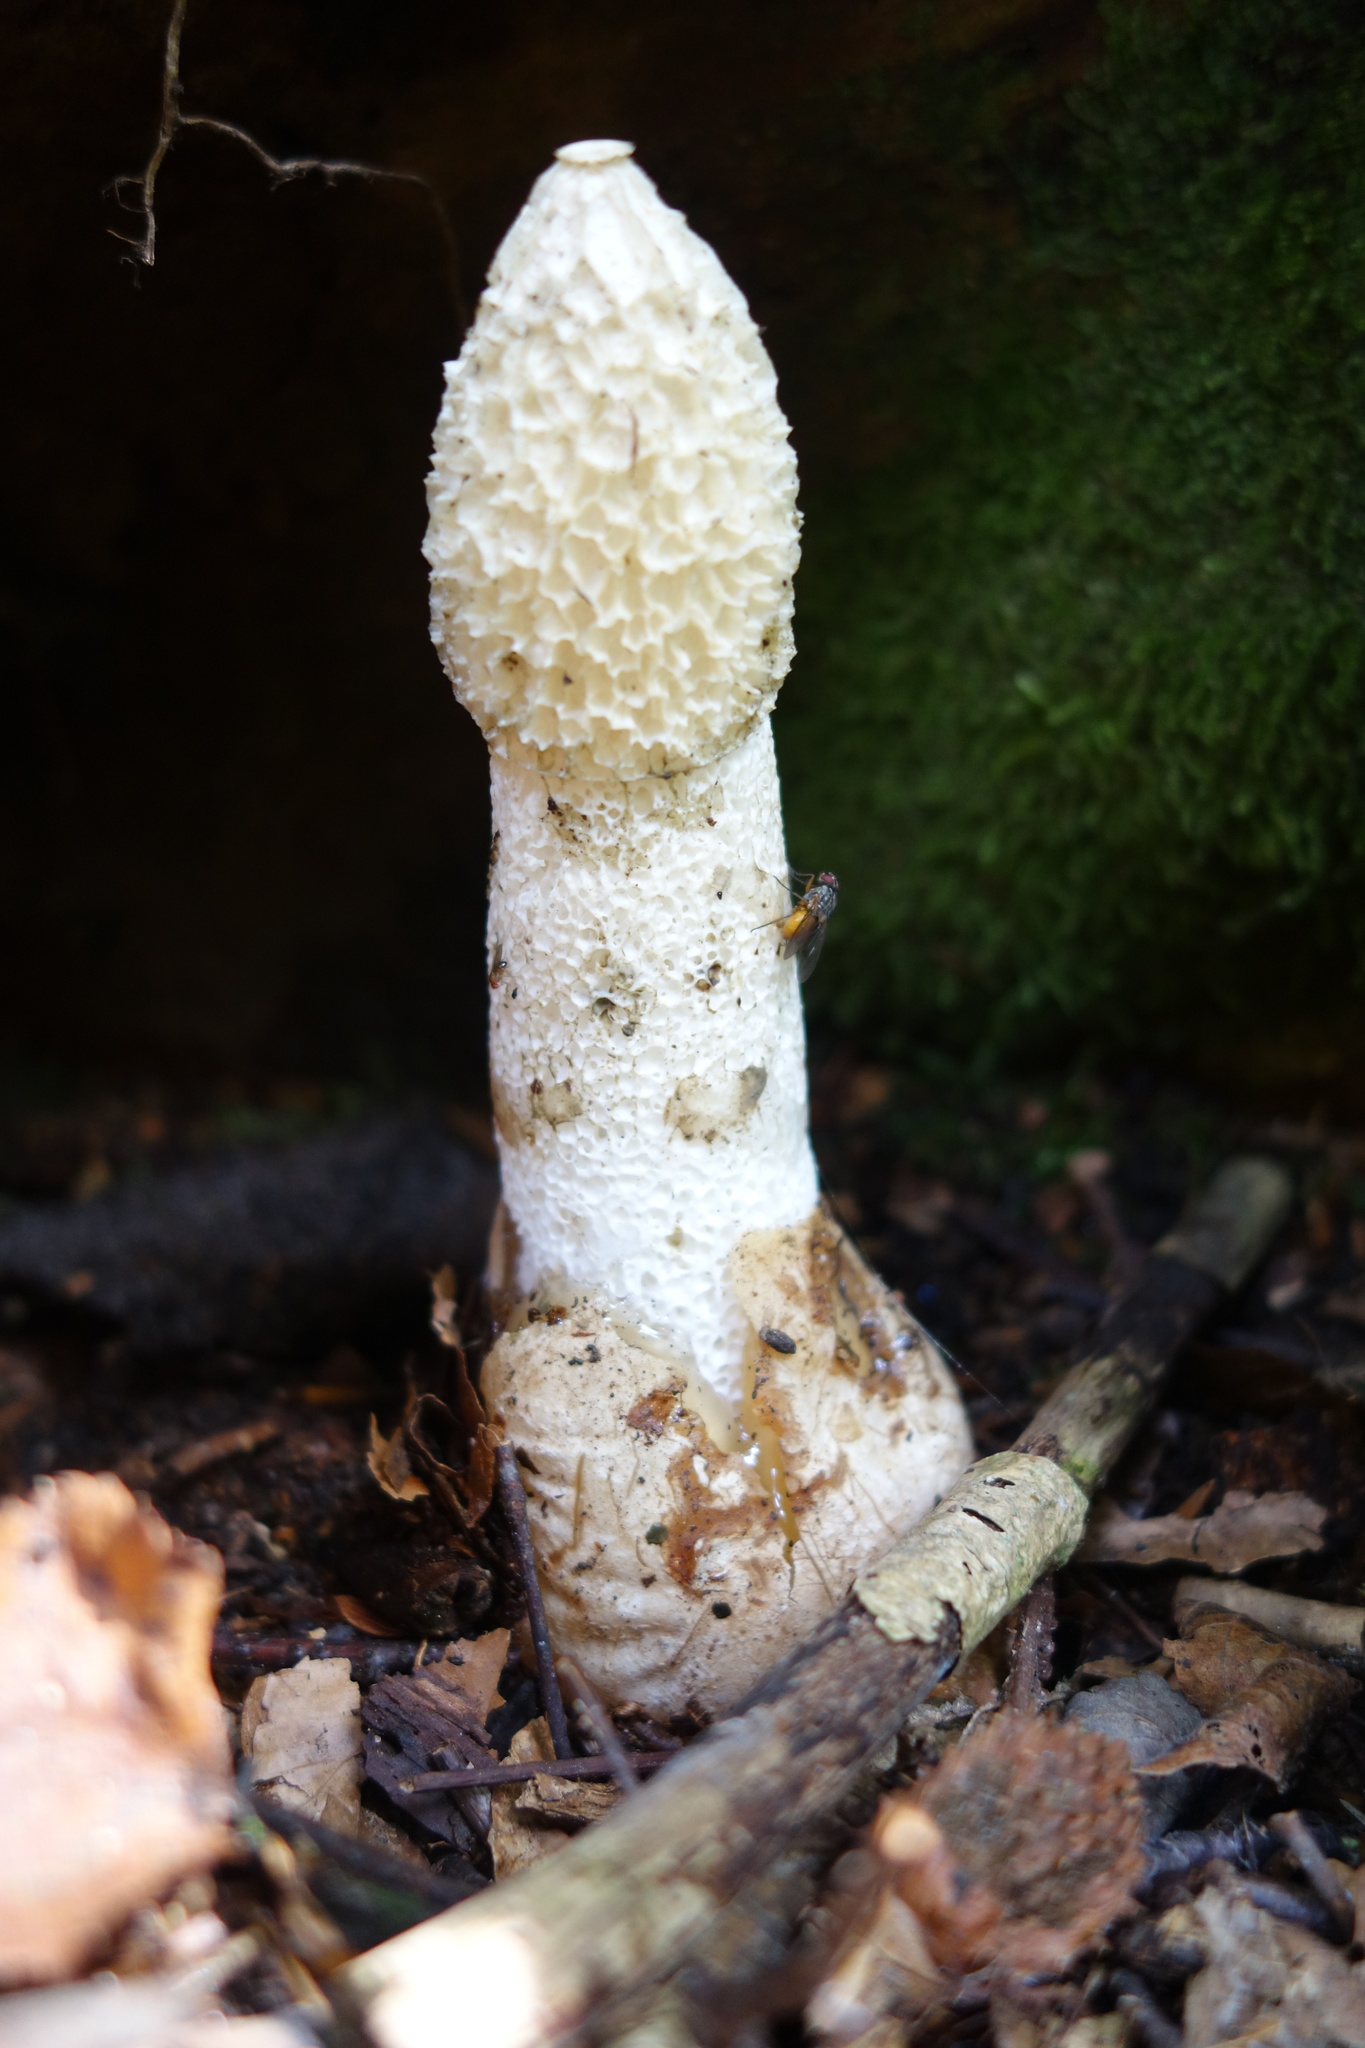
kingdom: Fungi
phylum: Basidiomycota
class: Agaricomycetes
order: Phallales
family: Phallaceae
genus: Phallus
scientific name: Phallus impudicus
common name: Common stinkhorn
